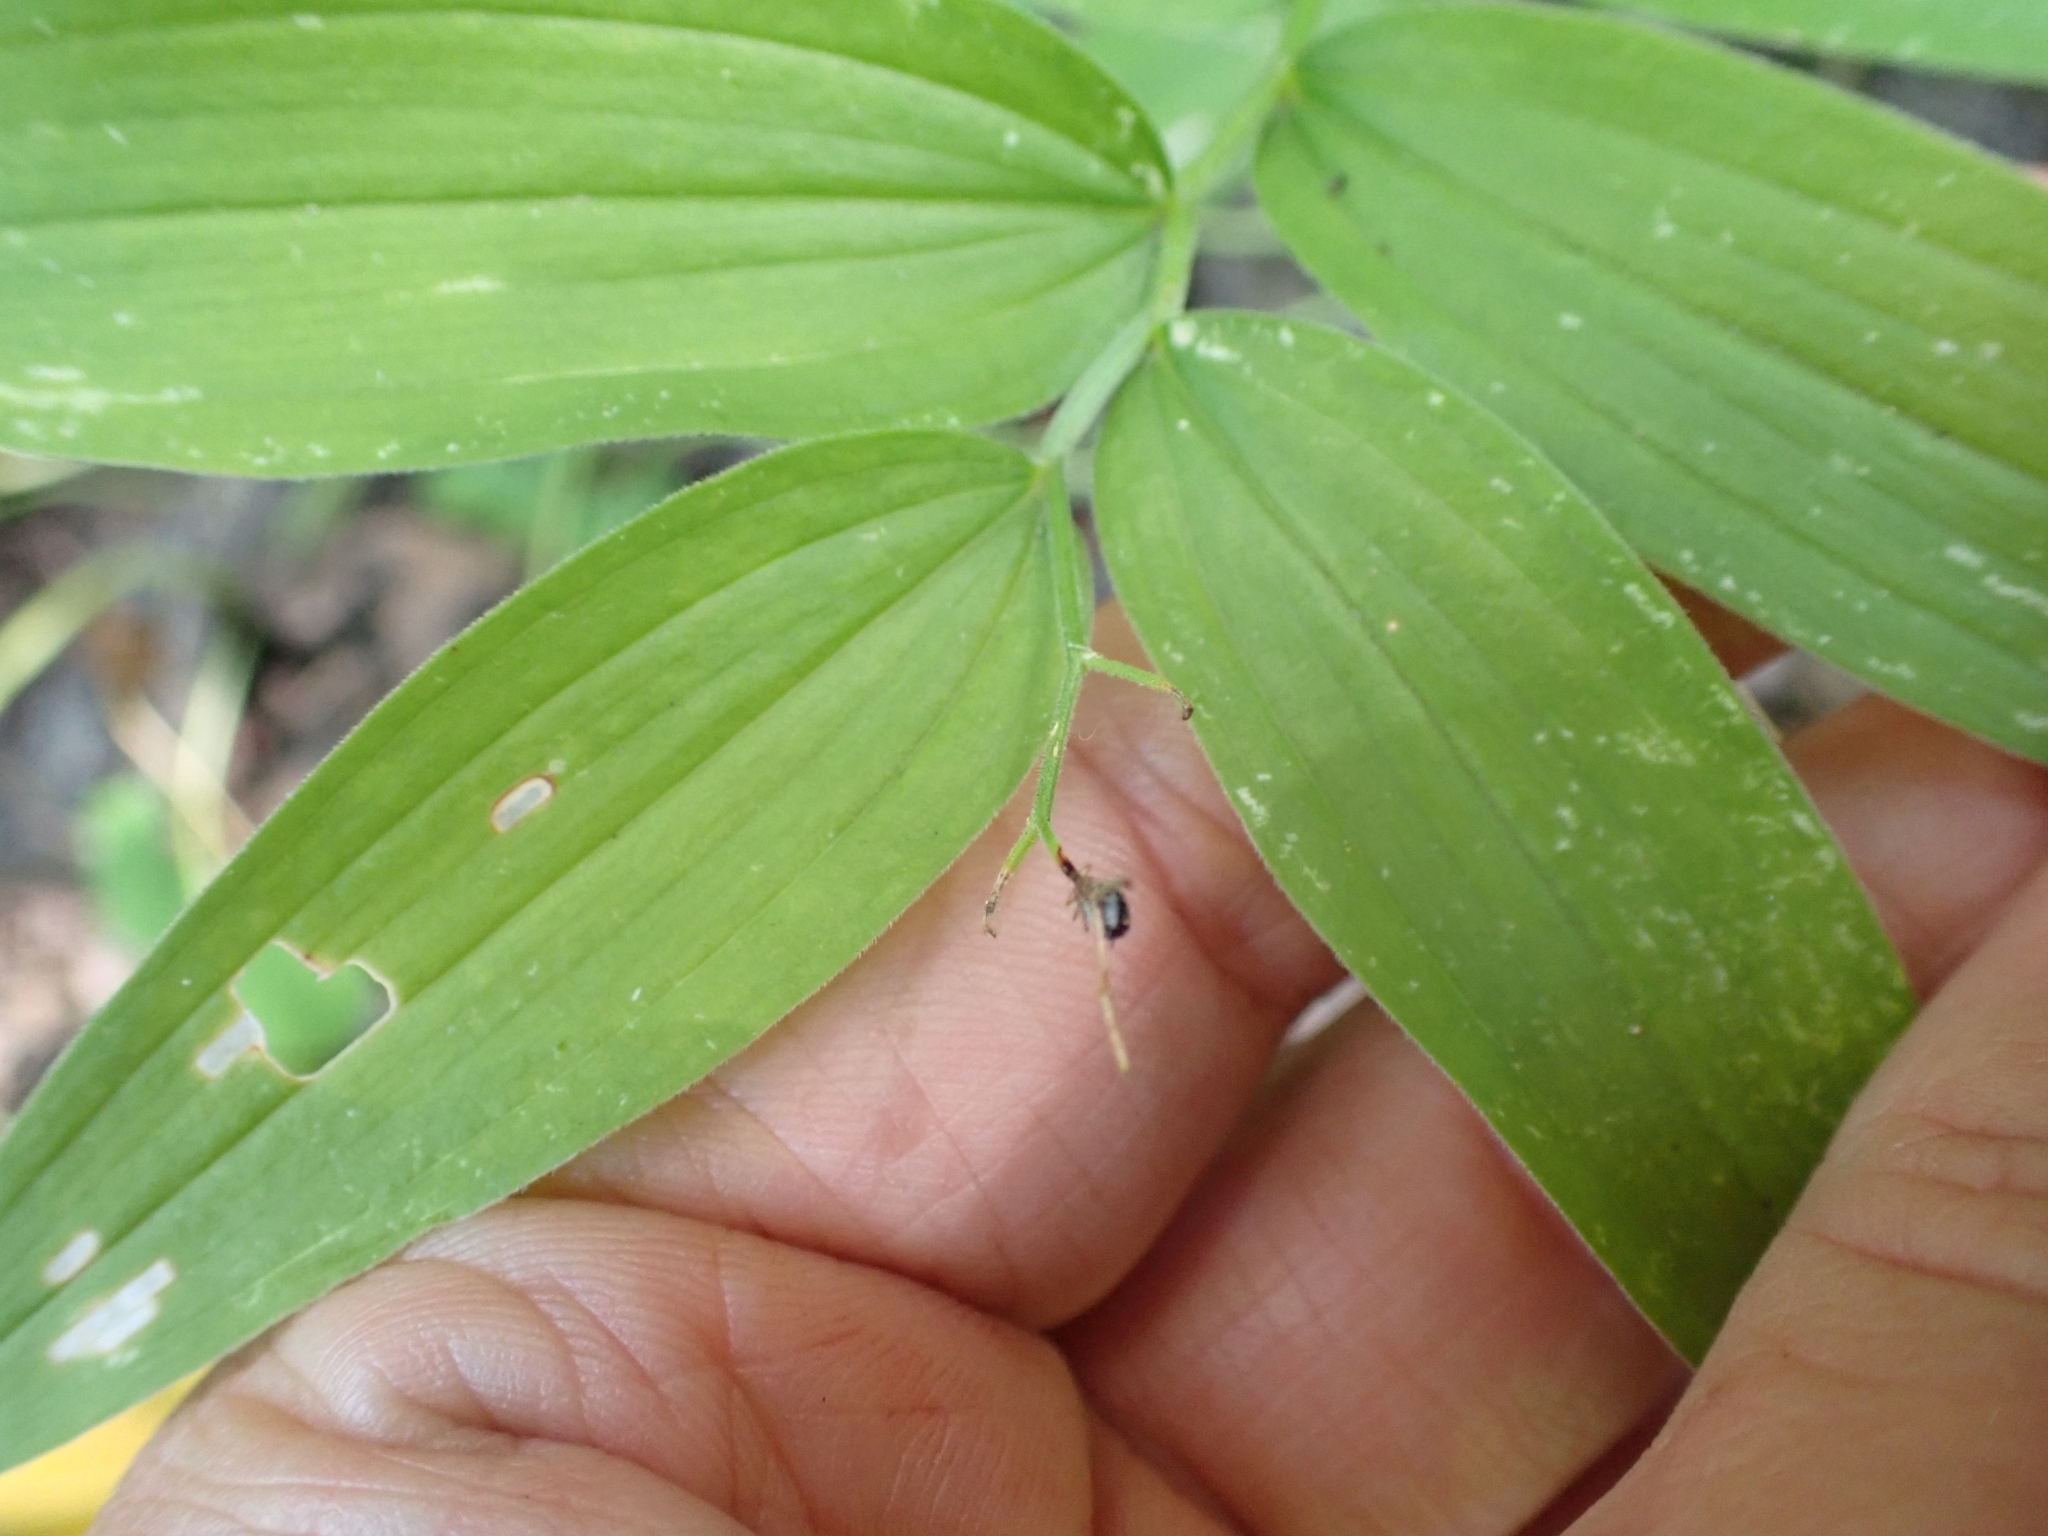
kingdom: Plantae
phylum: Tracheophyta
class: Liliopsida
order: Asparagales
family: Asparagaceae
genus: Maianthemum
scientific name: Maianthemum stellatum
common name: Little false solomon's seal
